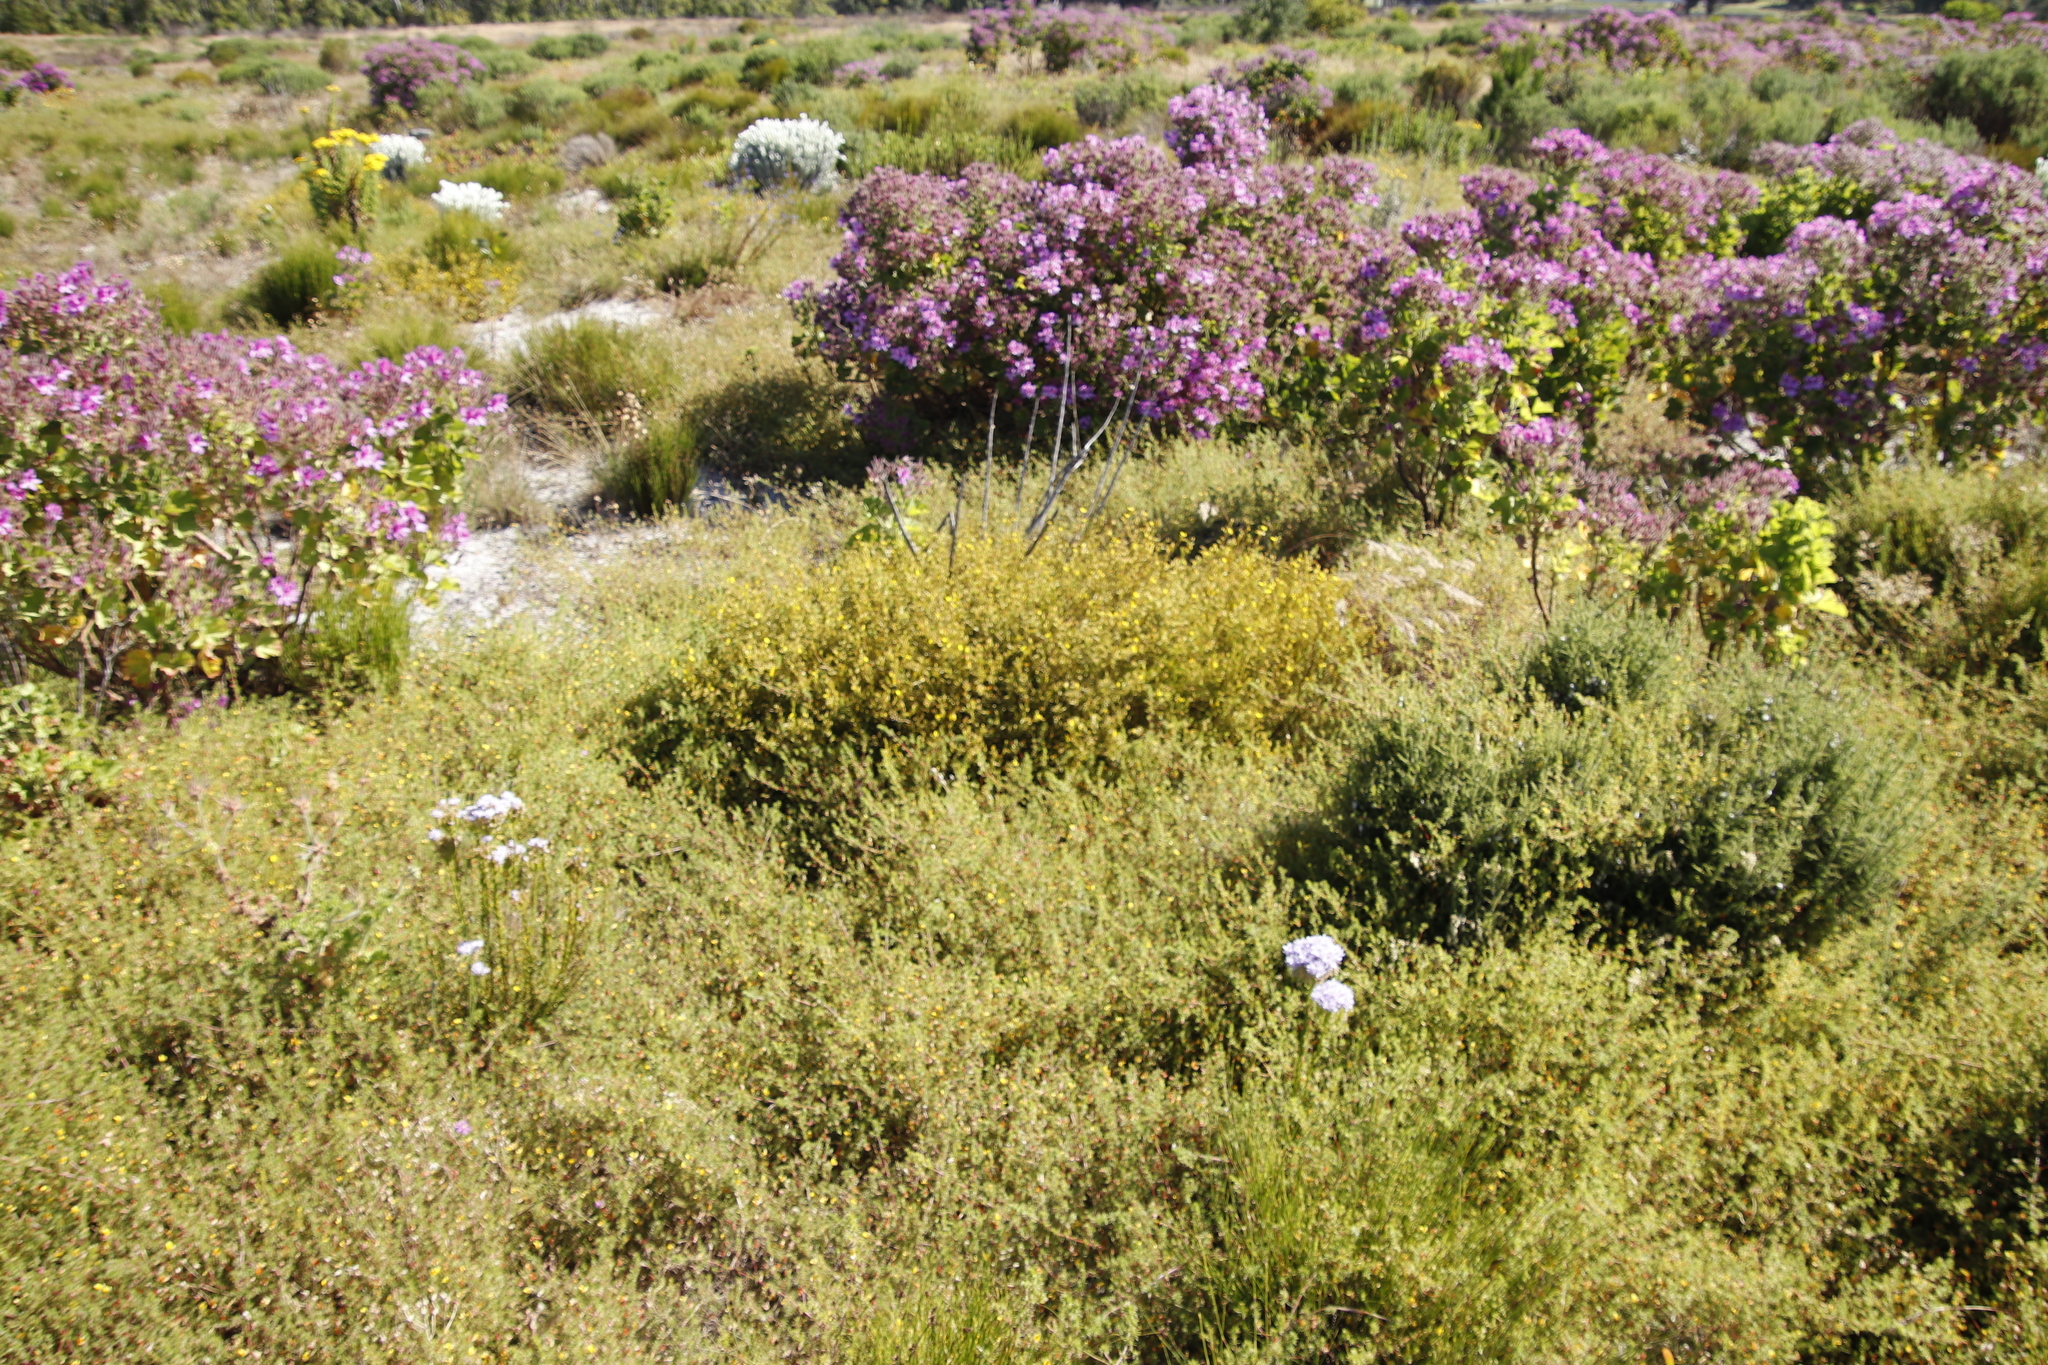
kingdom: Plantae
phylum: Tracheophyta
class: Magnoliopsida
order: Fabales
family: Fabaceae
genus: Aspalathus
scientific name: Aspalathus abietina
